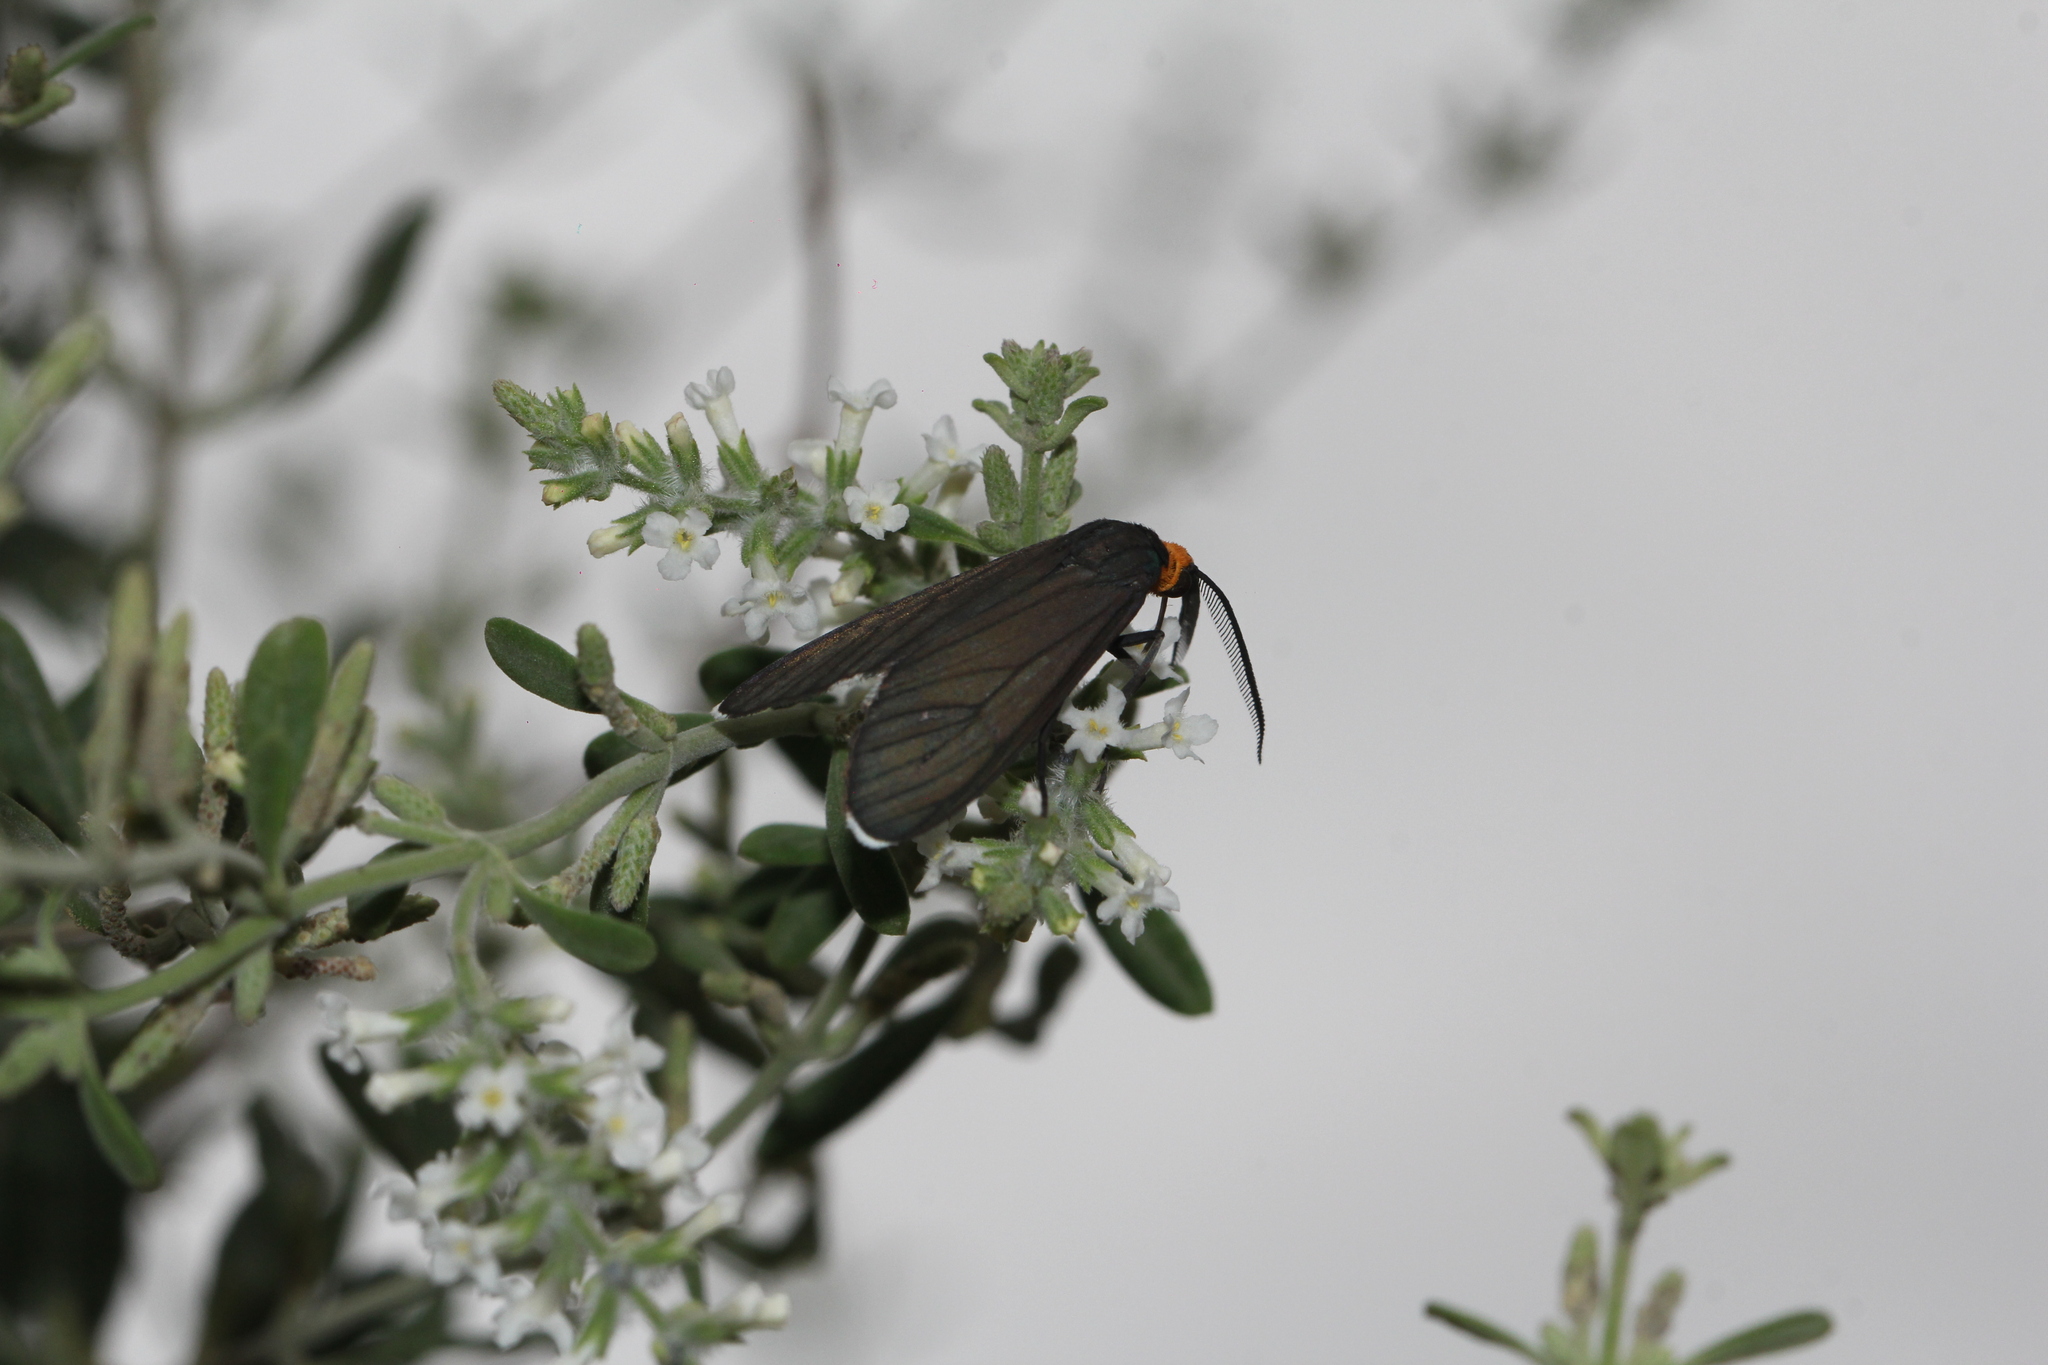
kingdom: Animalia
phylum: Arthropoda
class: Insecta
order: Lepidoptera
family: Erebidae
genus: Ctenucha
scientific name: Ctenucha rubriceps
